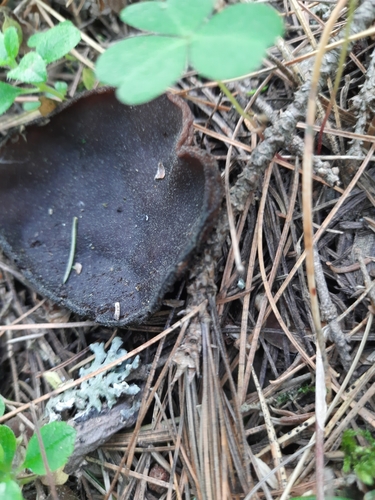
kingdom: Fungi
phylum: Ascomycota
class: Pezizomycetes
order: Pezizales
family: Sarcosomataceae
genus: Sarcosoma
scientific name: Sarcosoma globosum
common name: Charred-pancake cup
